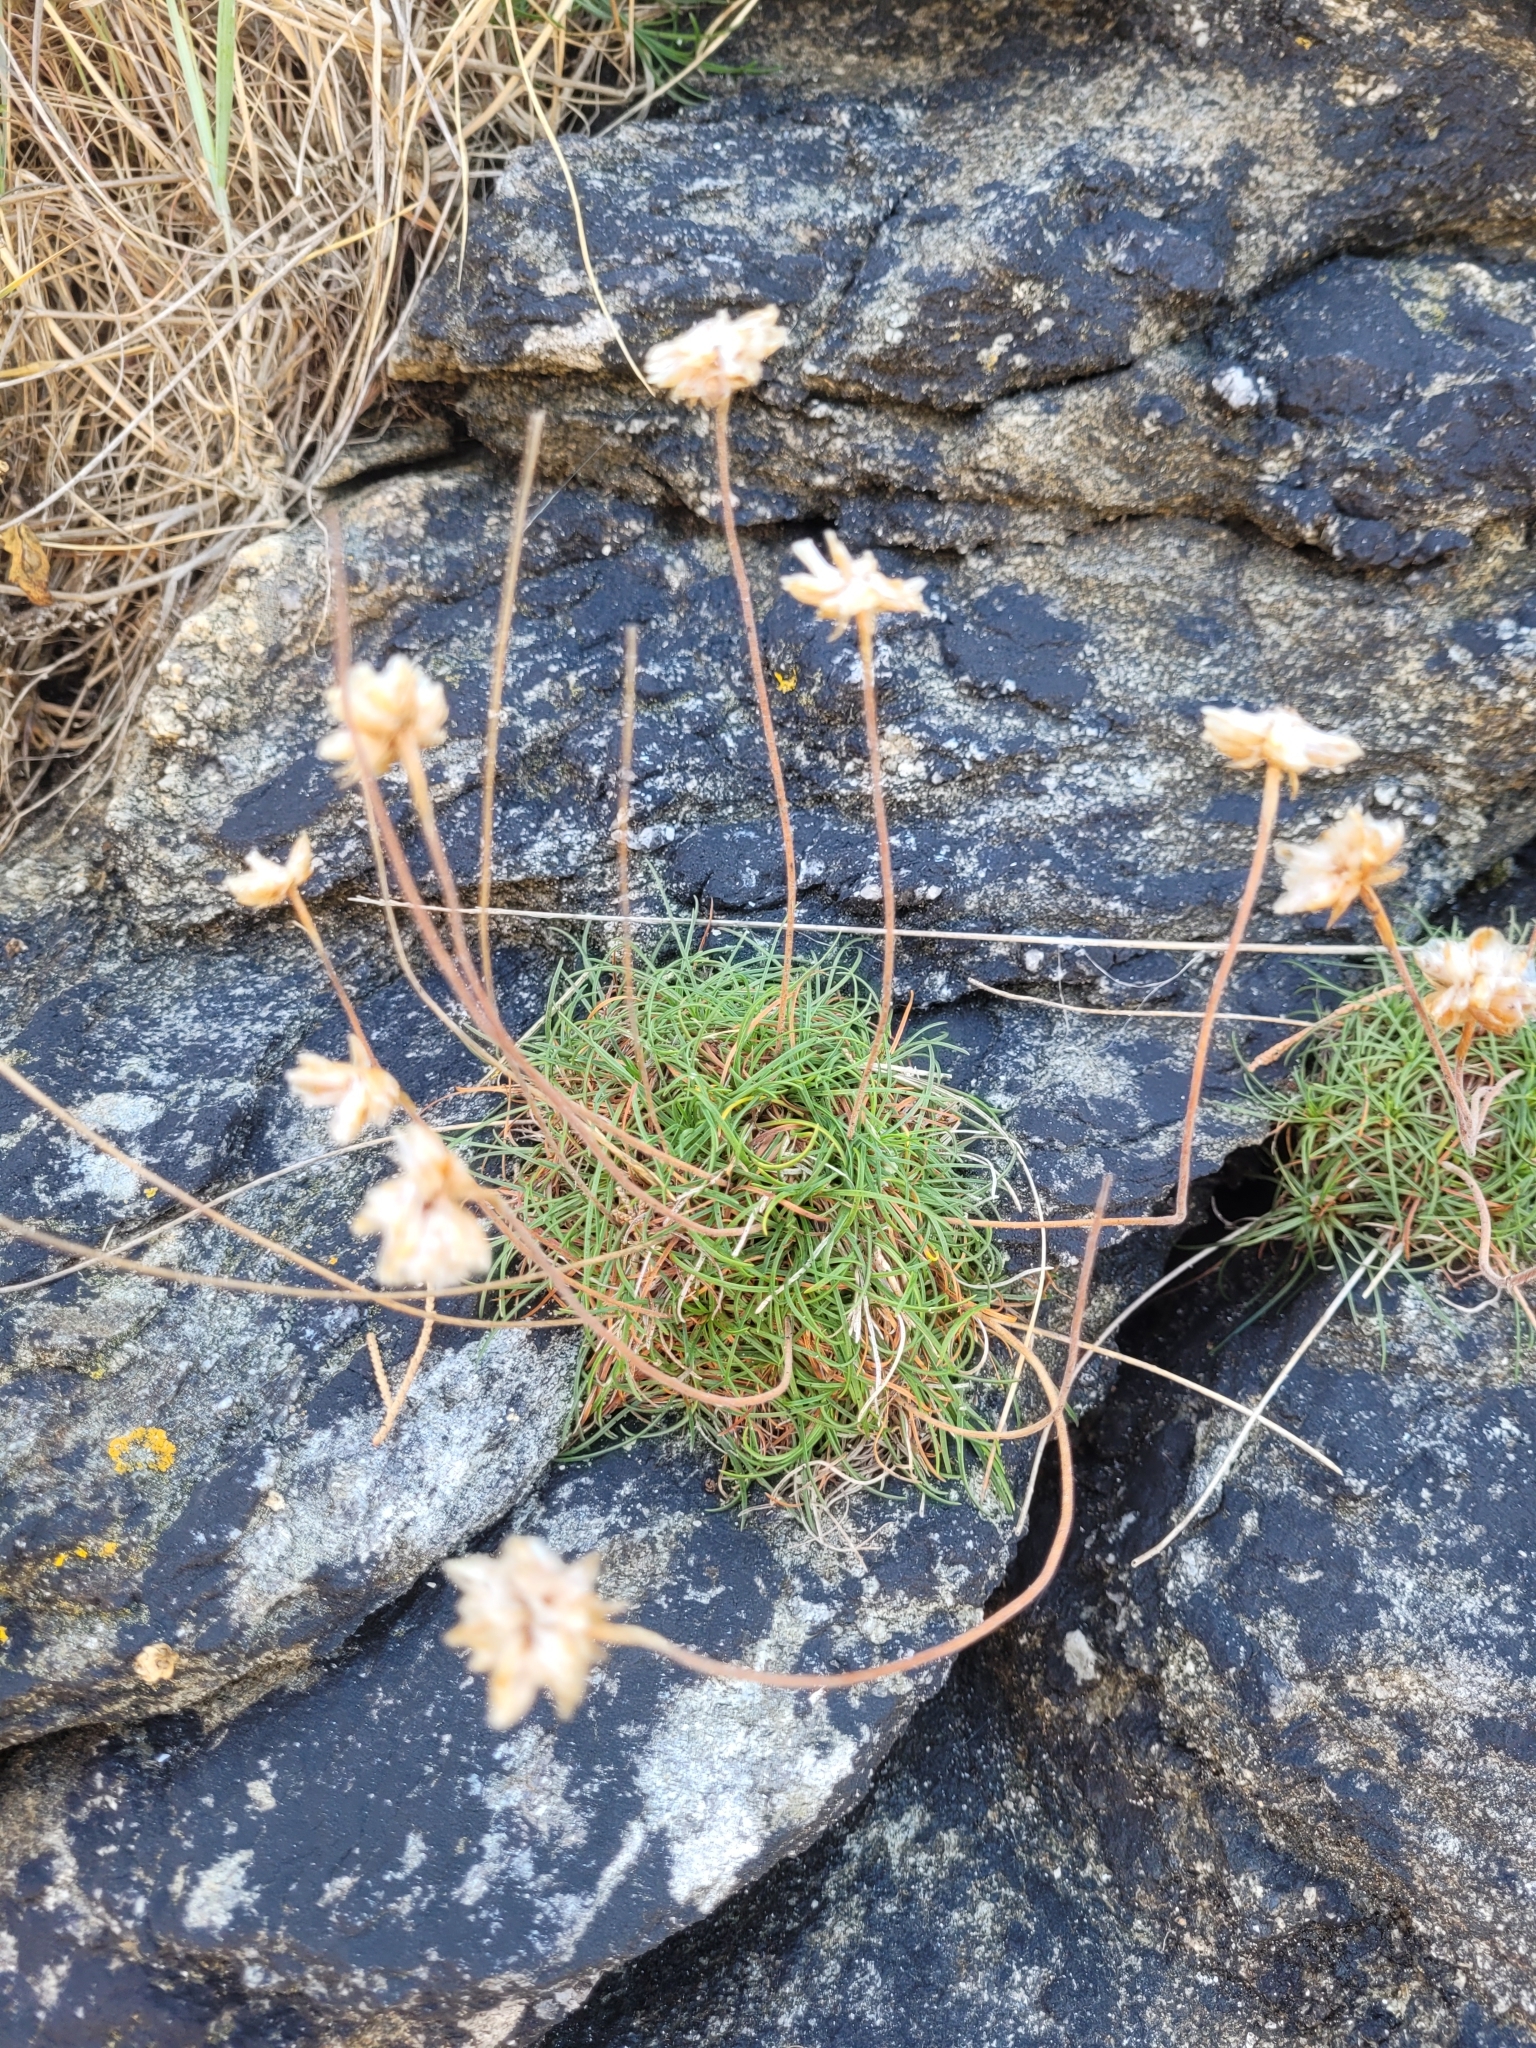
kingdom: Plantae
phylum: Tracheophyta
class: Magnoliopsida
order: Caryophyllales
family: Plumbaginaceae
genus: Armeria
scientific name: Armeria maritima
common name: Thrift
